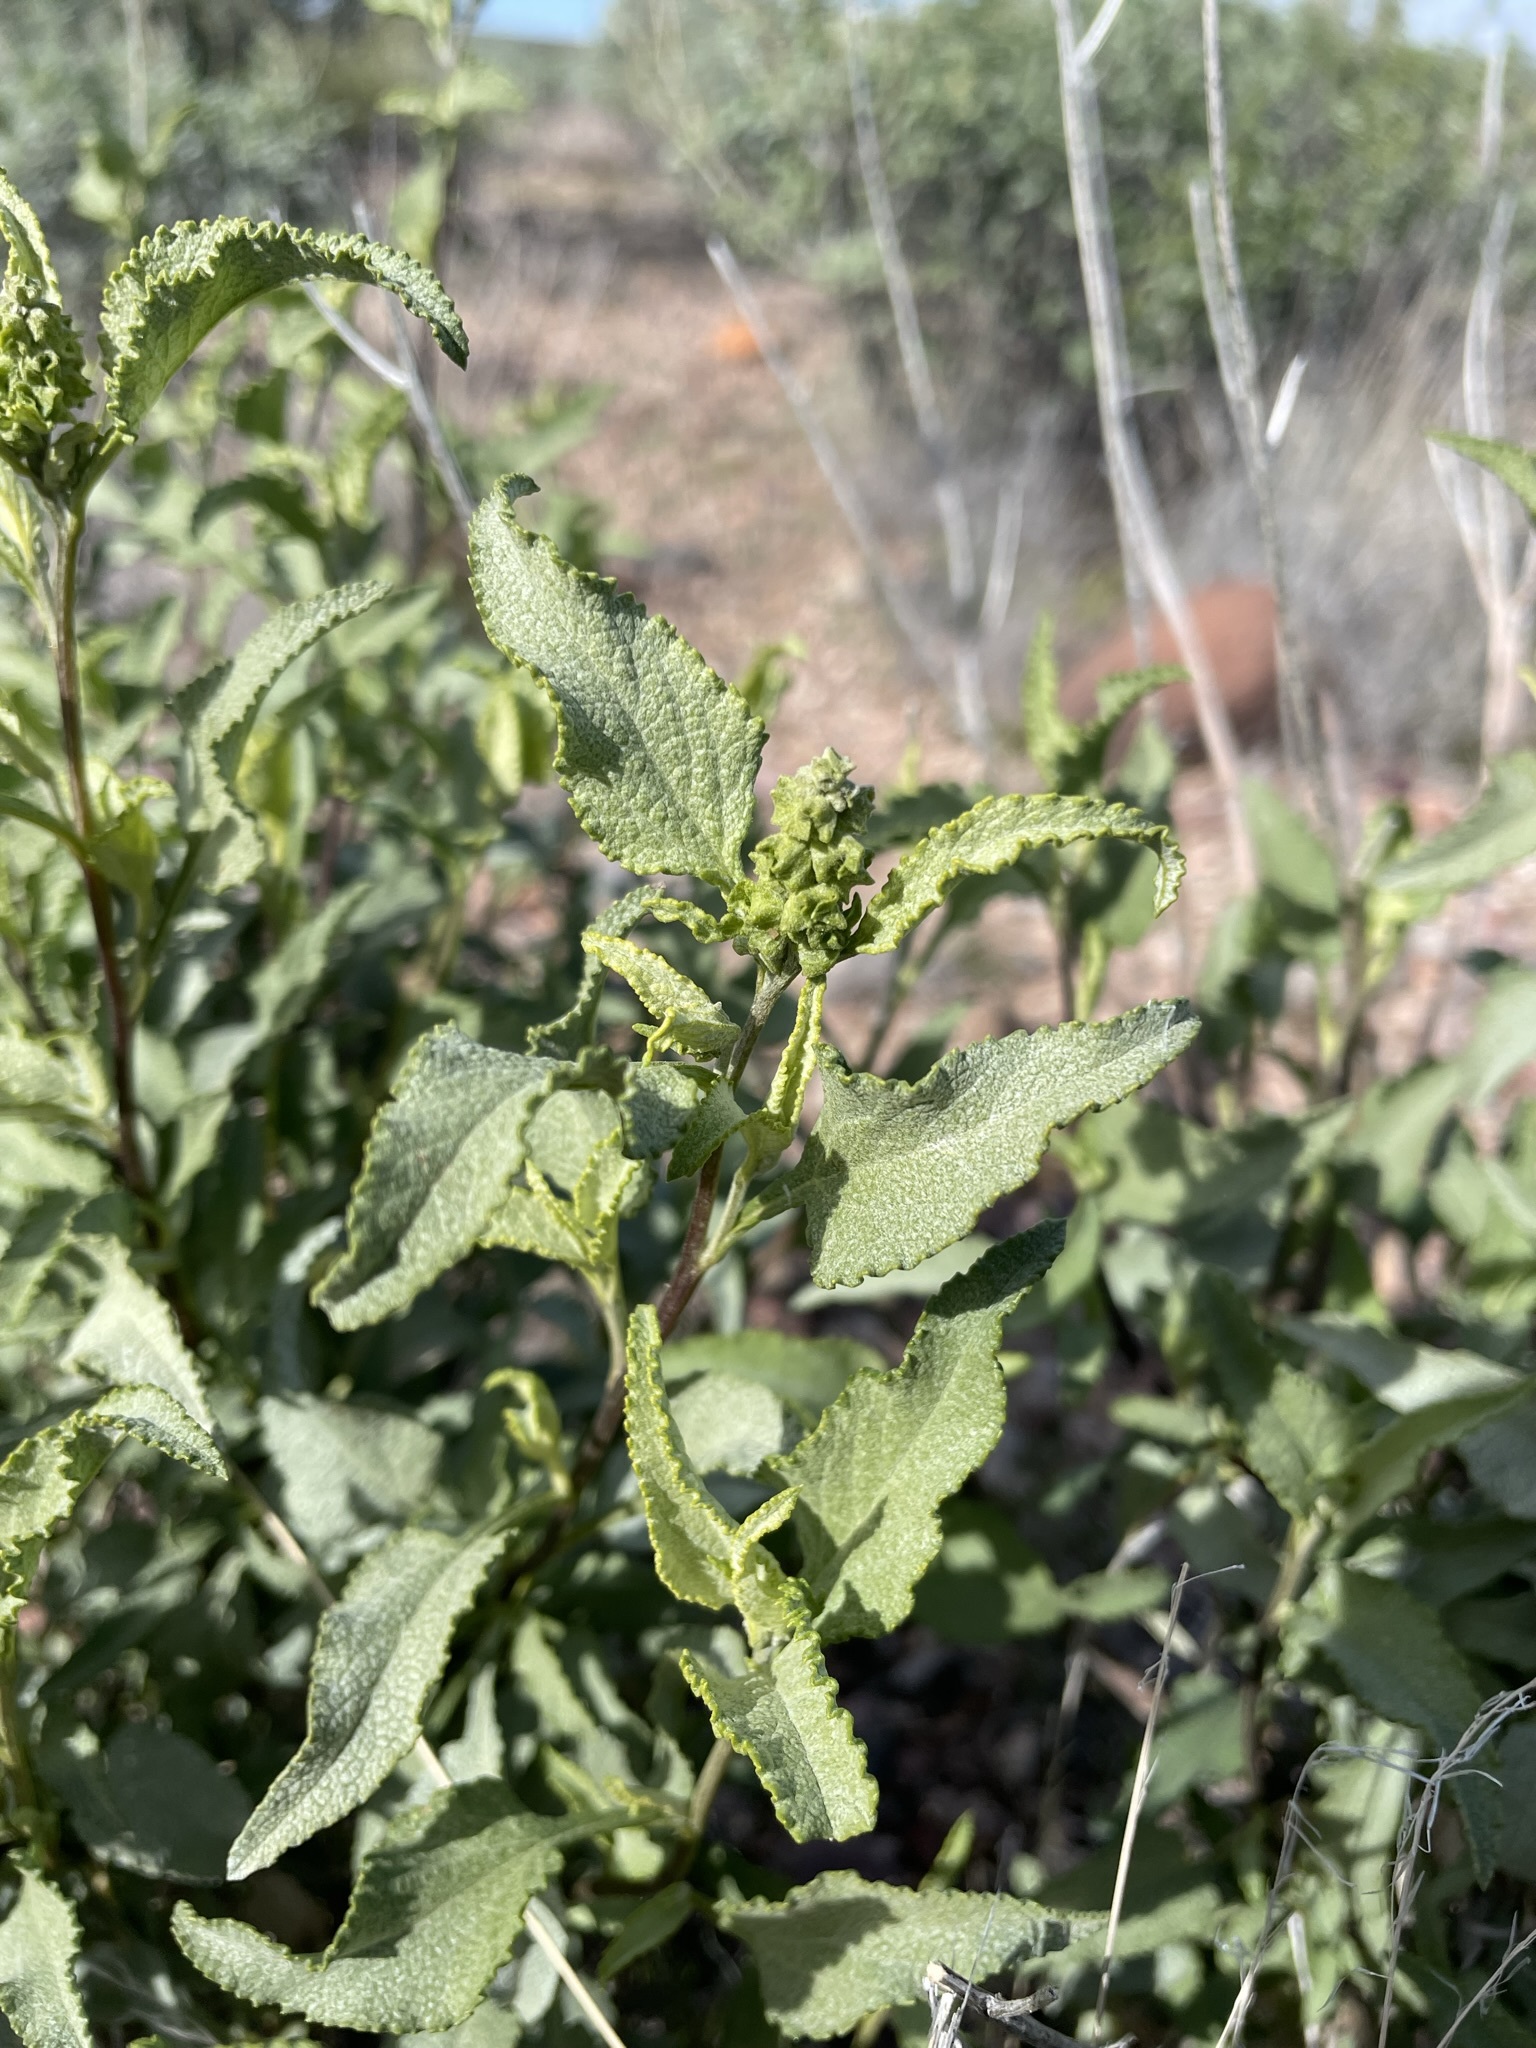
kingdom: Plantae
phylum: Tracheophyta
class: Magnoliopsida
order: Asterales
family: Asteraceae
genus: Ambrosia
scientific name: Ambrosia deltoidea
